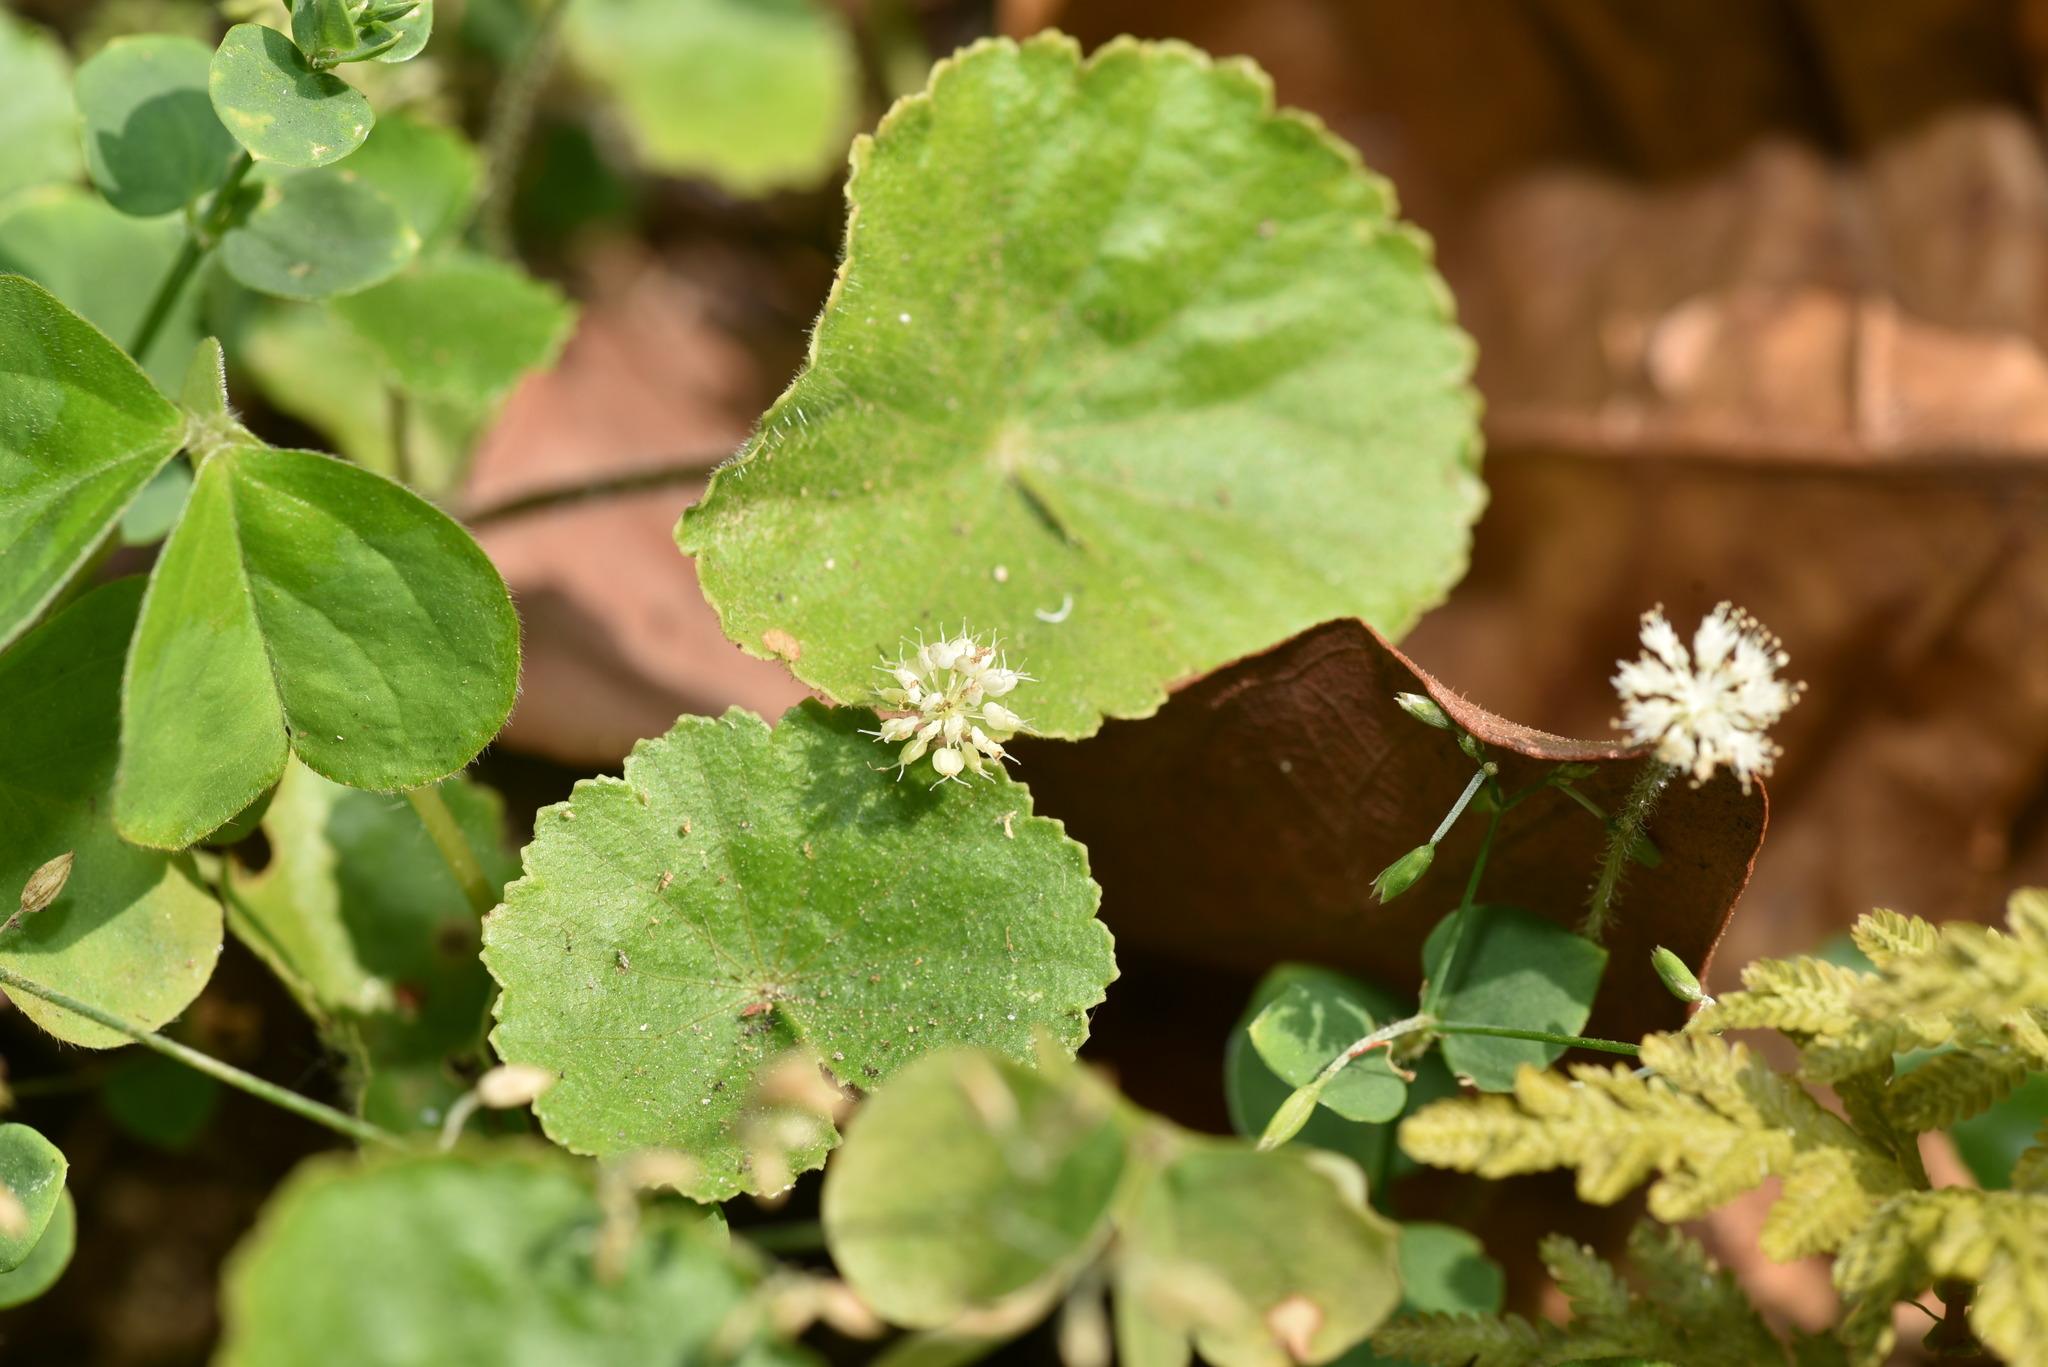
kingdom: Plantae
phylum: Tracheophyta
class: Magnoliopsida
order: Apiales
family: Araliaceae
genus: Hydrocotyle
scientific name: Hydrocotyle leucocephala
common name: Brazilian pennywort
